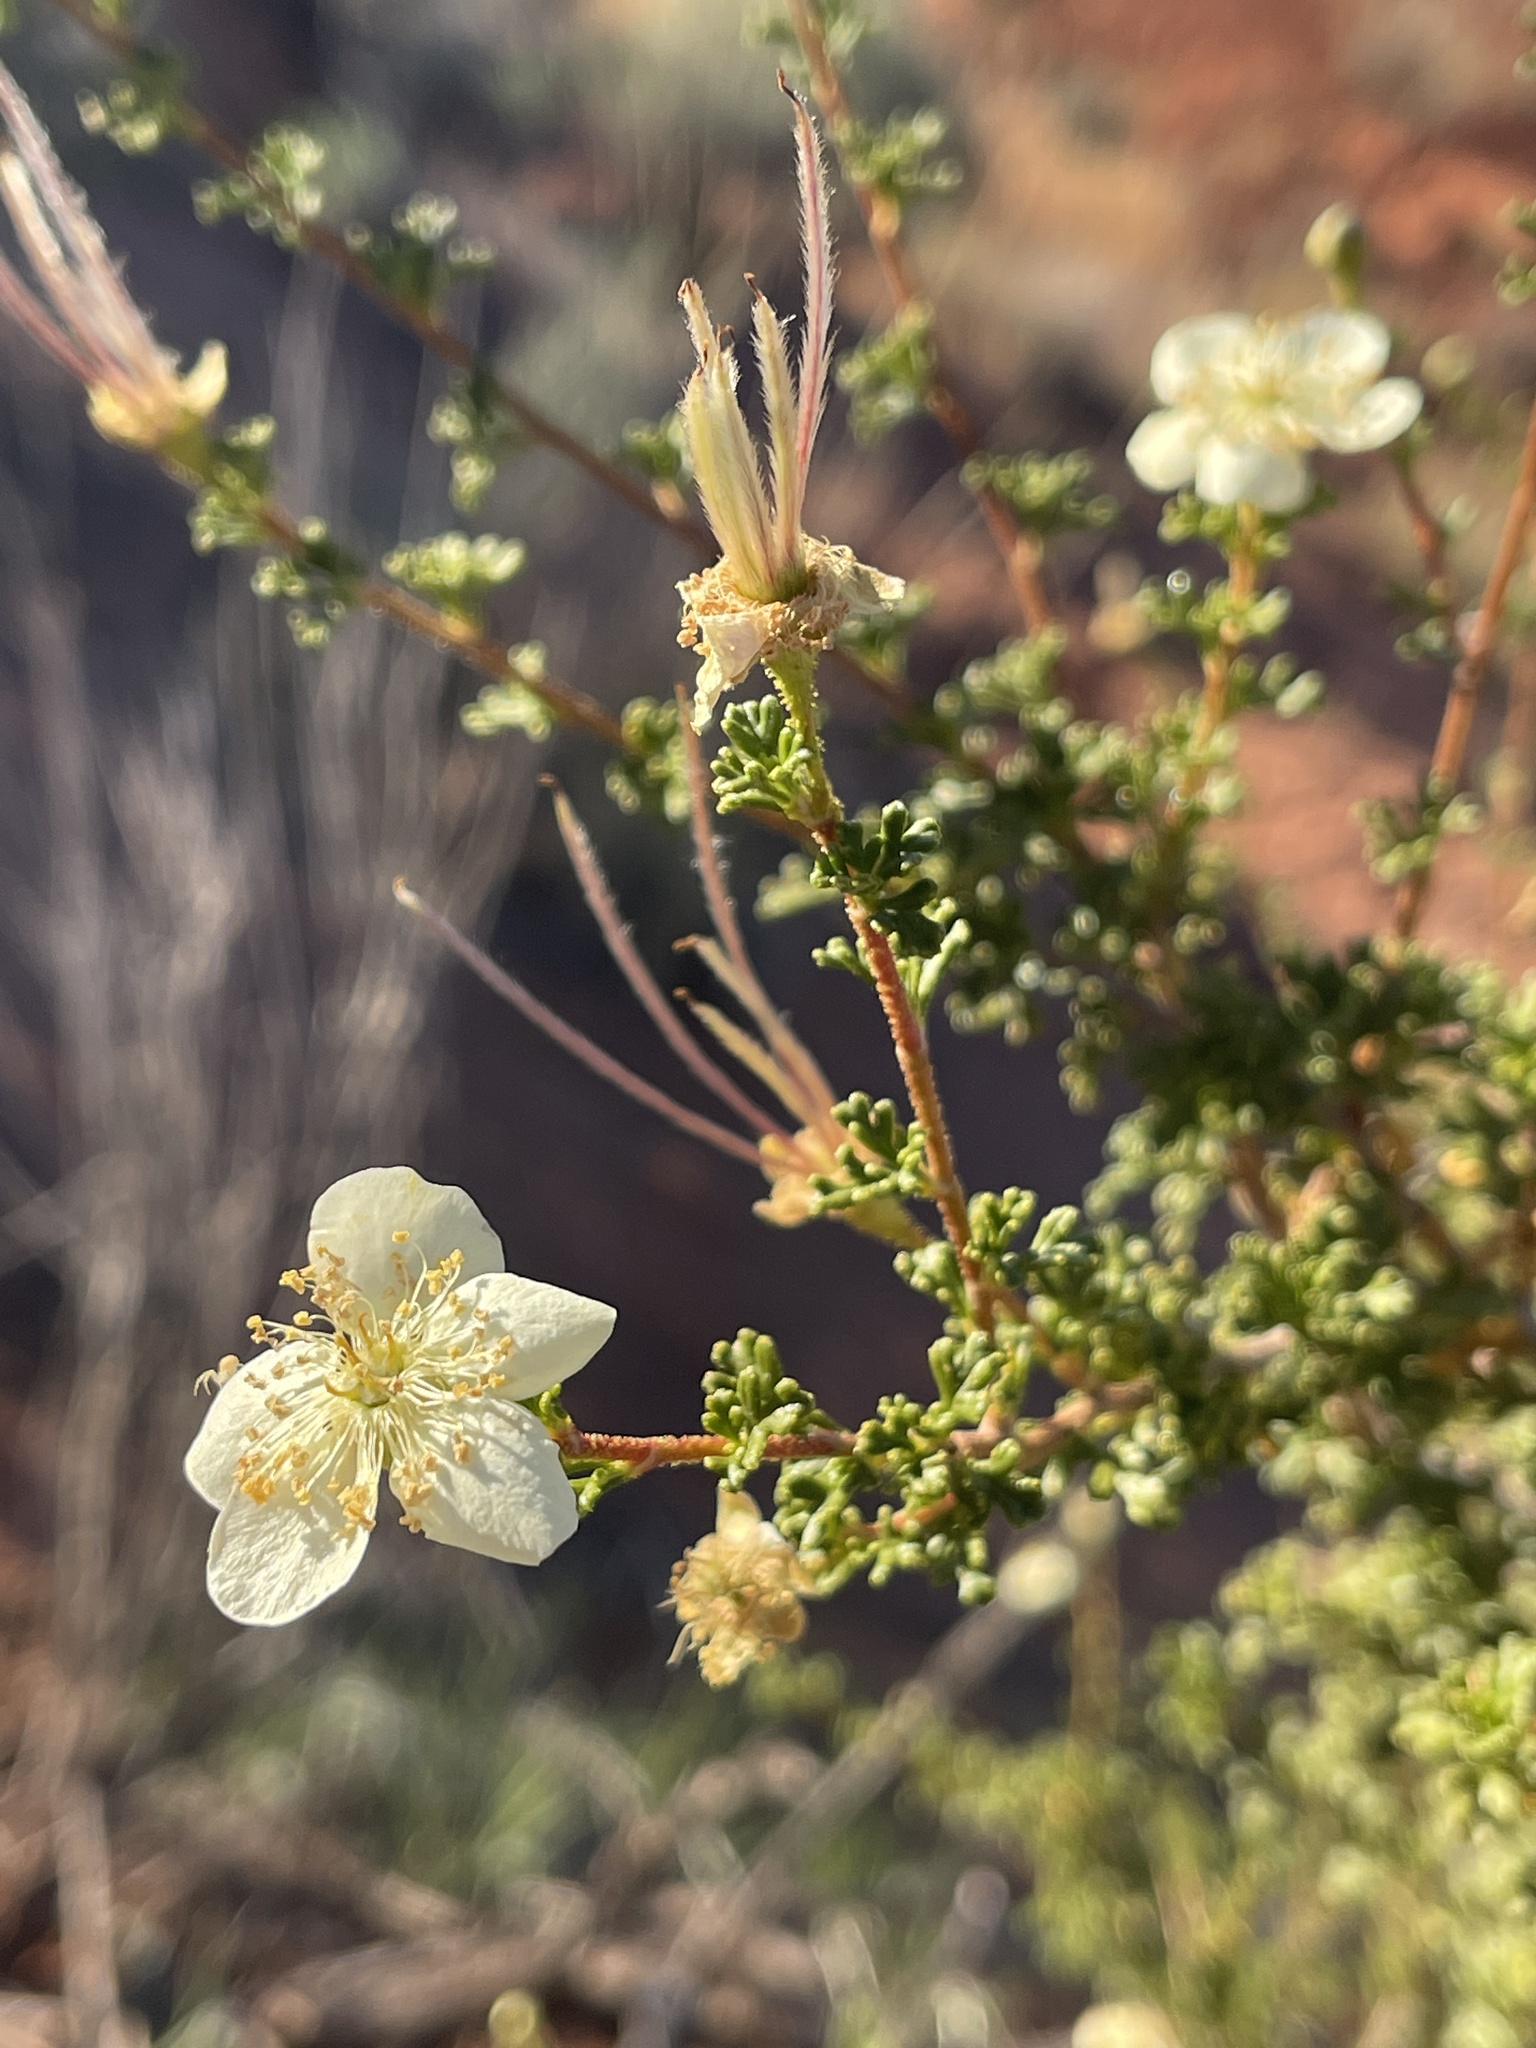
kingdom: Plantae
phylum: Tracheophyta
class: Magnoliopsida
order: Rosales
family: Rosaceae
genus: Purshia
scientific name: Purshia stansburiana
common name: Stansbury's cliffrose
